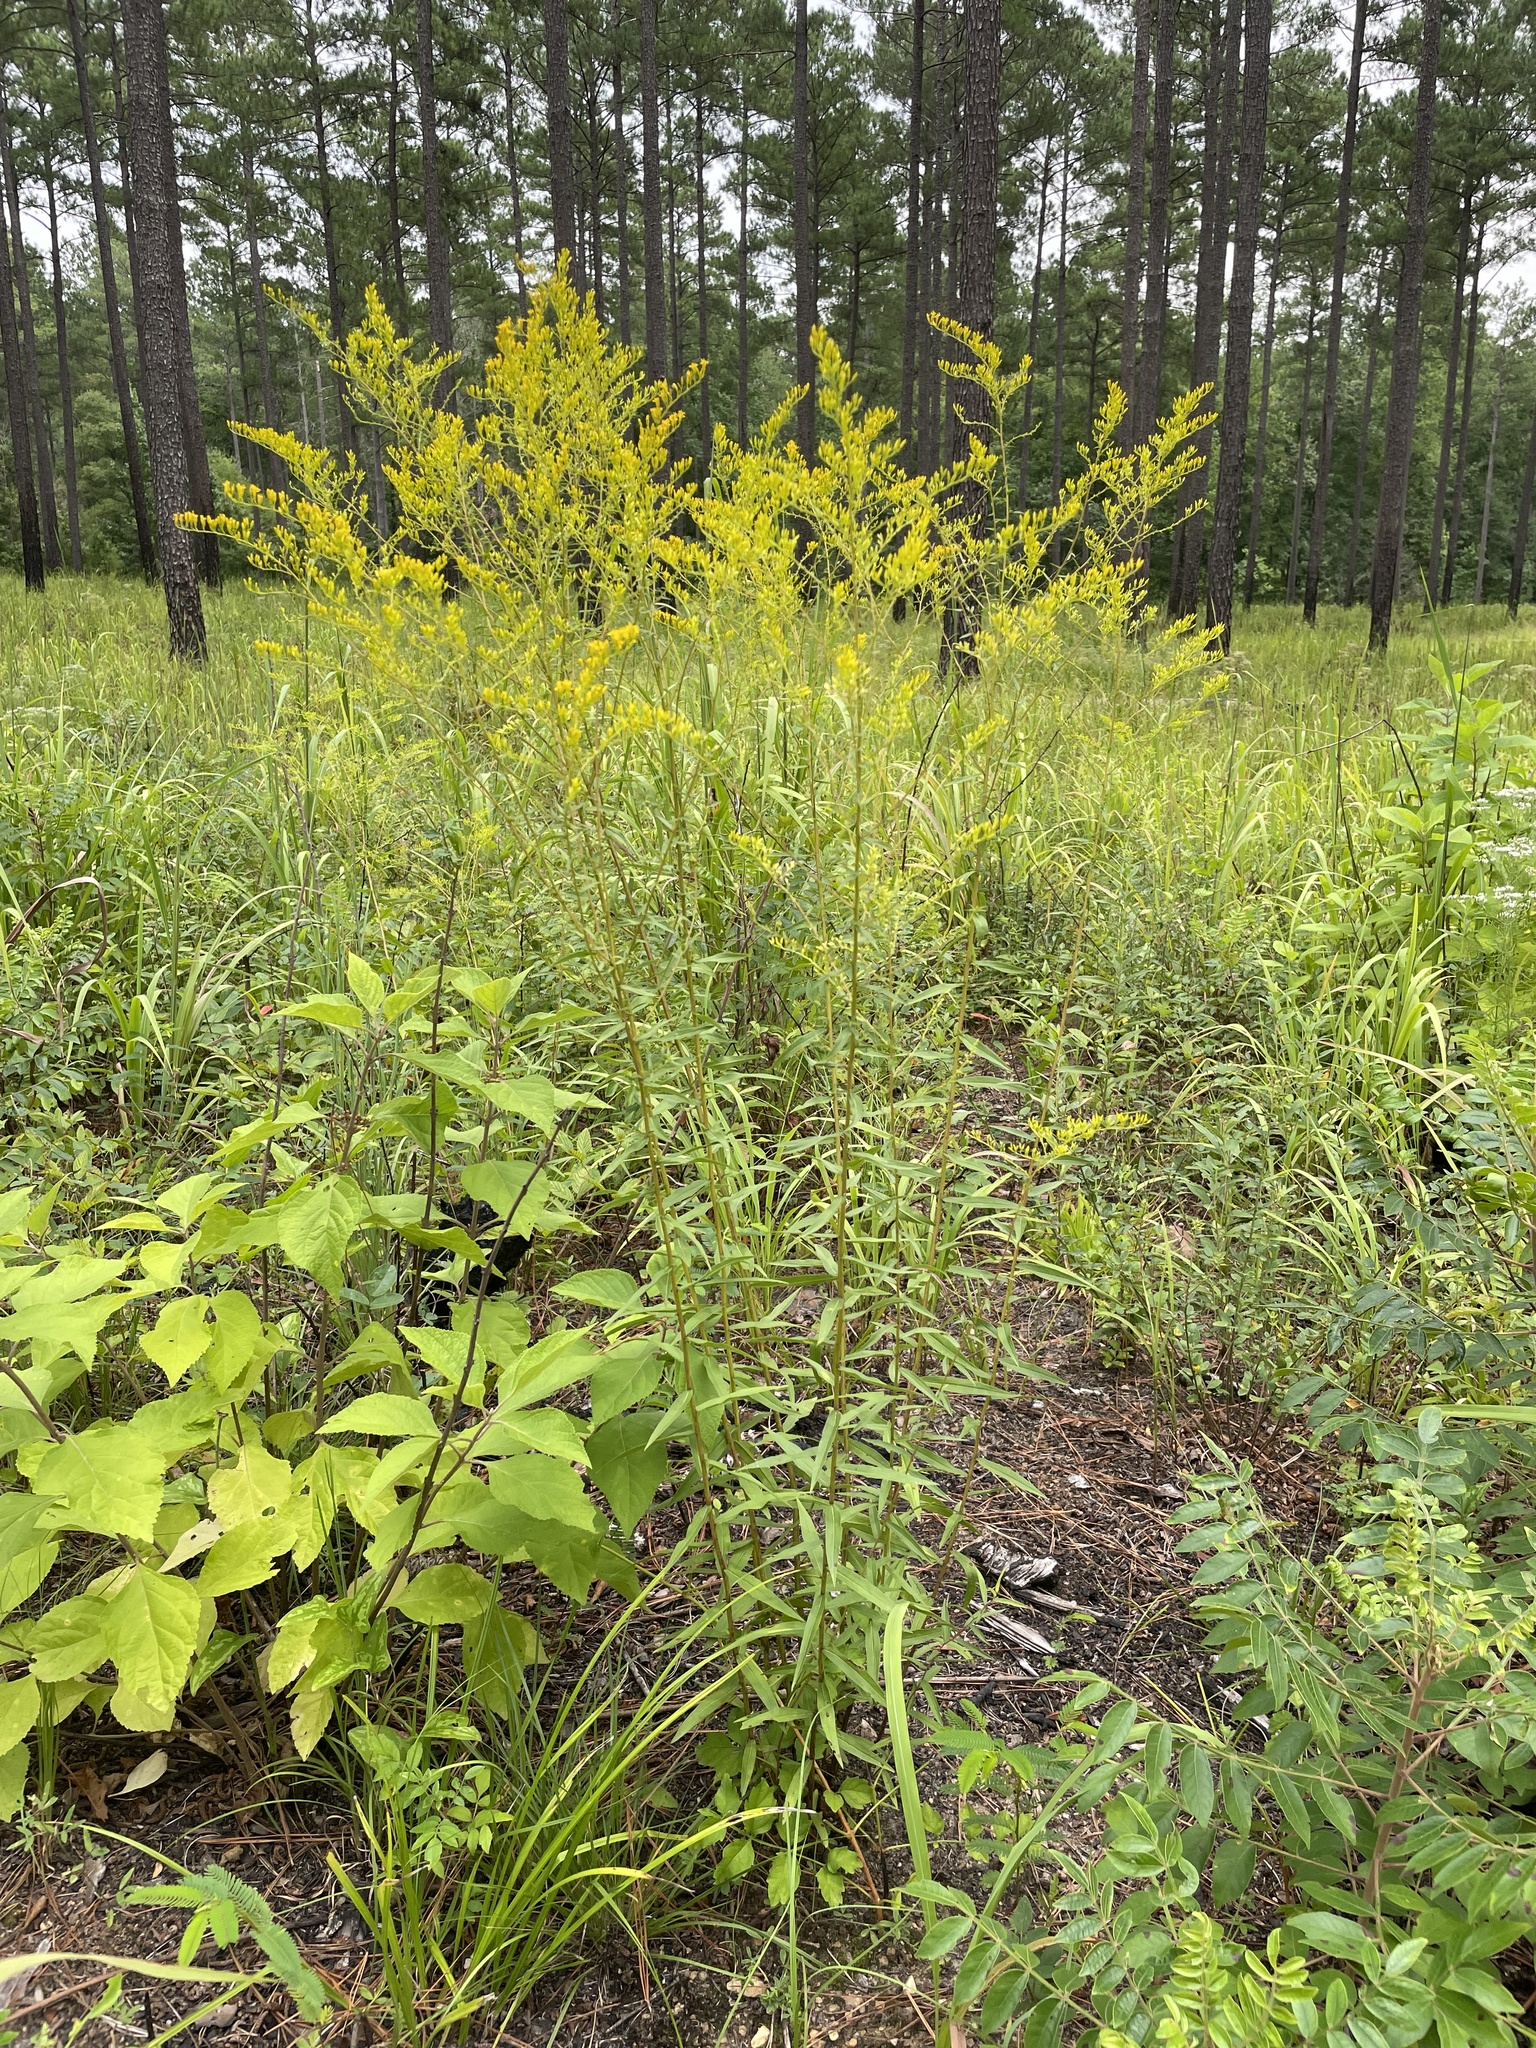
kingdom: Plantae
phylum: Tracheophyta
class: Magnoliopsida
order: Asterales
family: Asteraceae
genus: Solidago
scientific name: Solidago odora
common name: Anise-scented goldenrod
